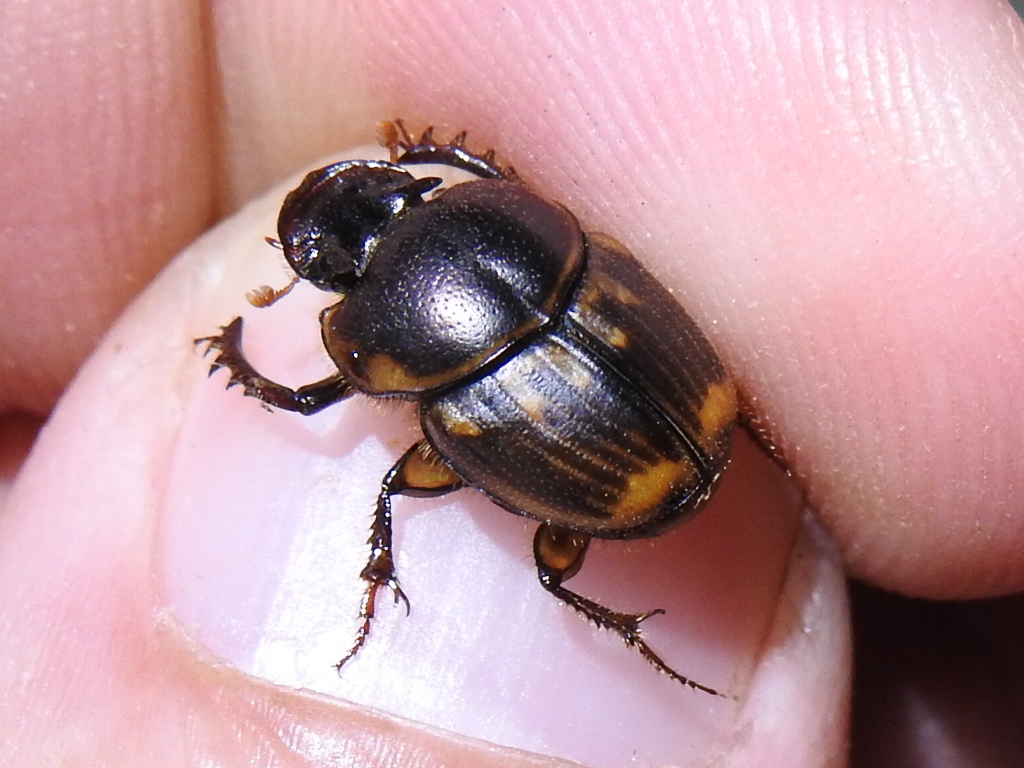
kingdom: Animalia
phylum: Arthropoda
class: Insecta
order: Coleoptera
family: Scarabaeidae
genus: Digitonthophagus
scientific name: Digitonthophagus gazella
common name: Brown dung beetle
